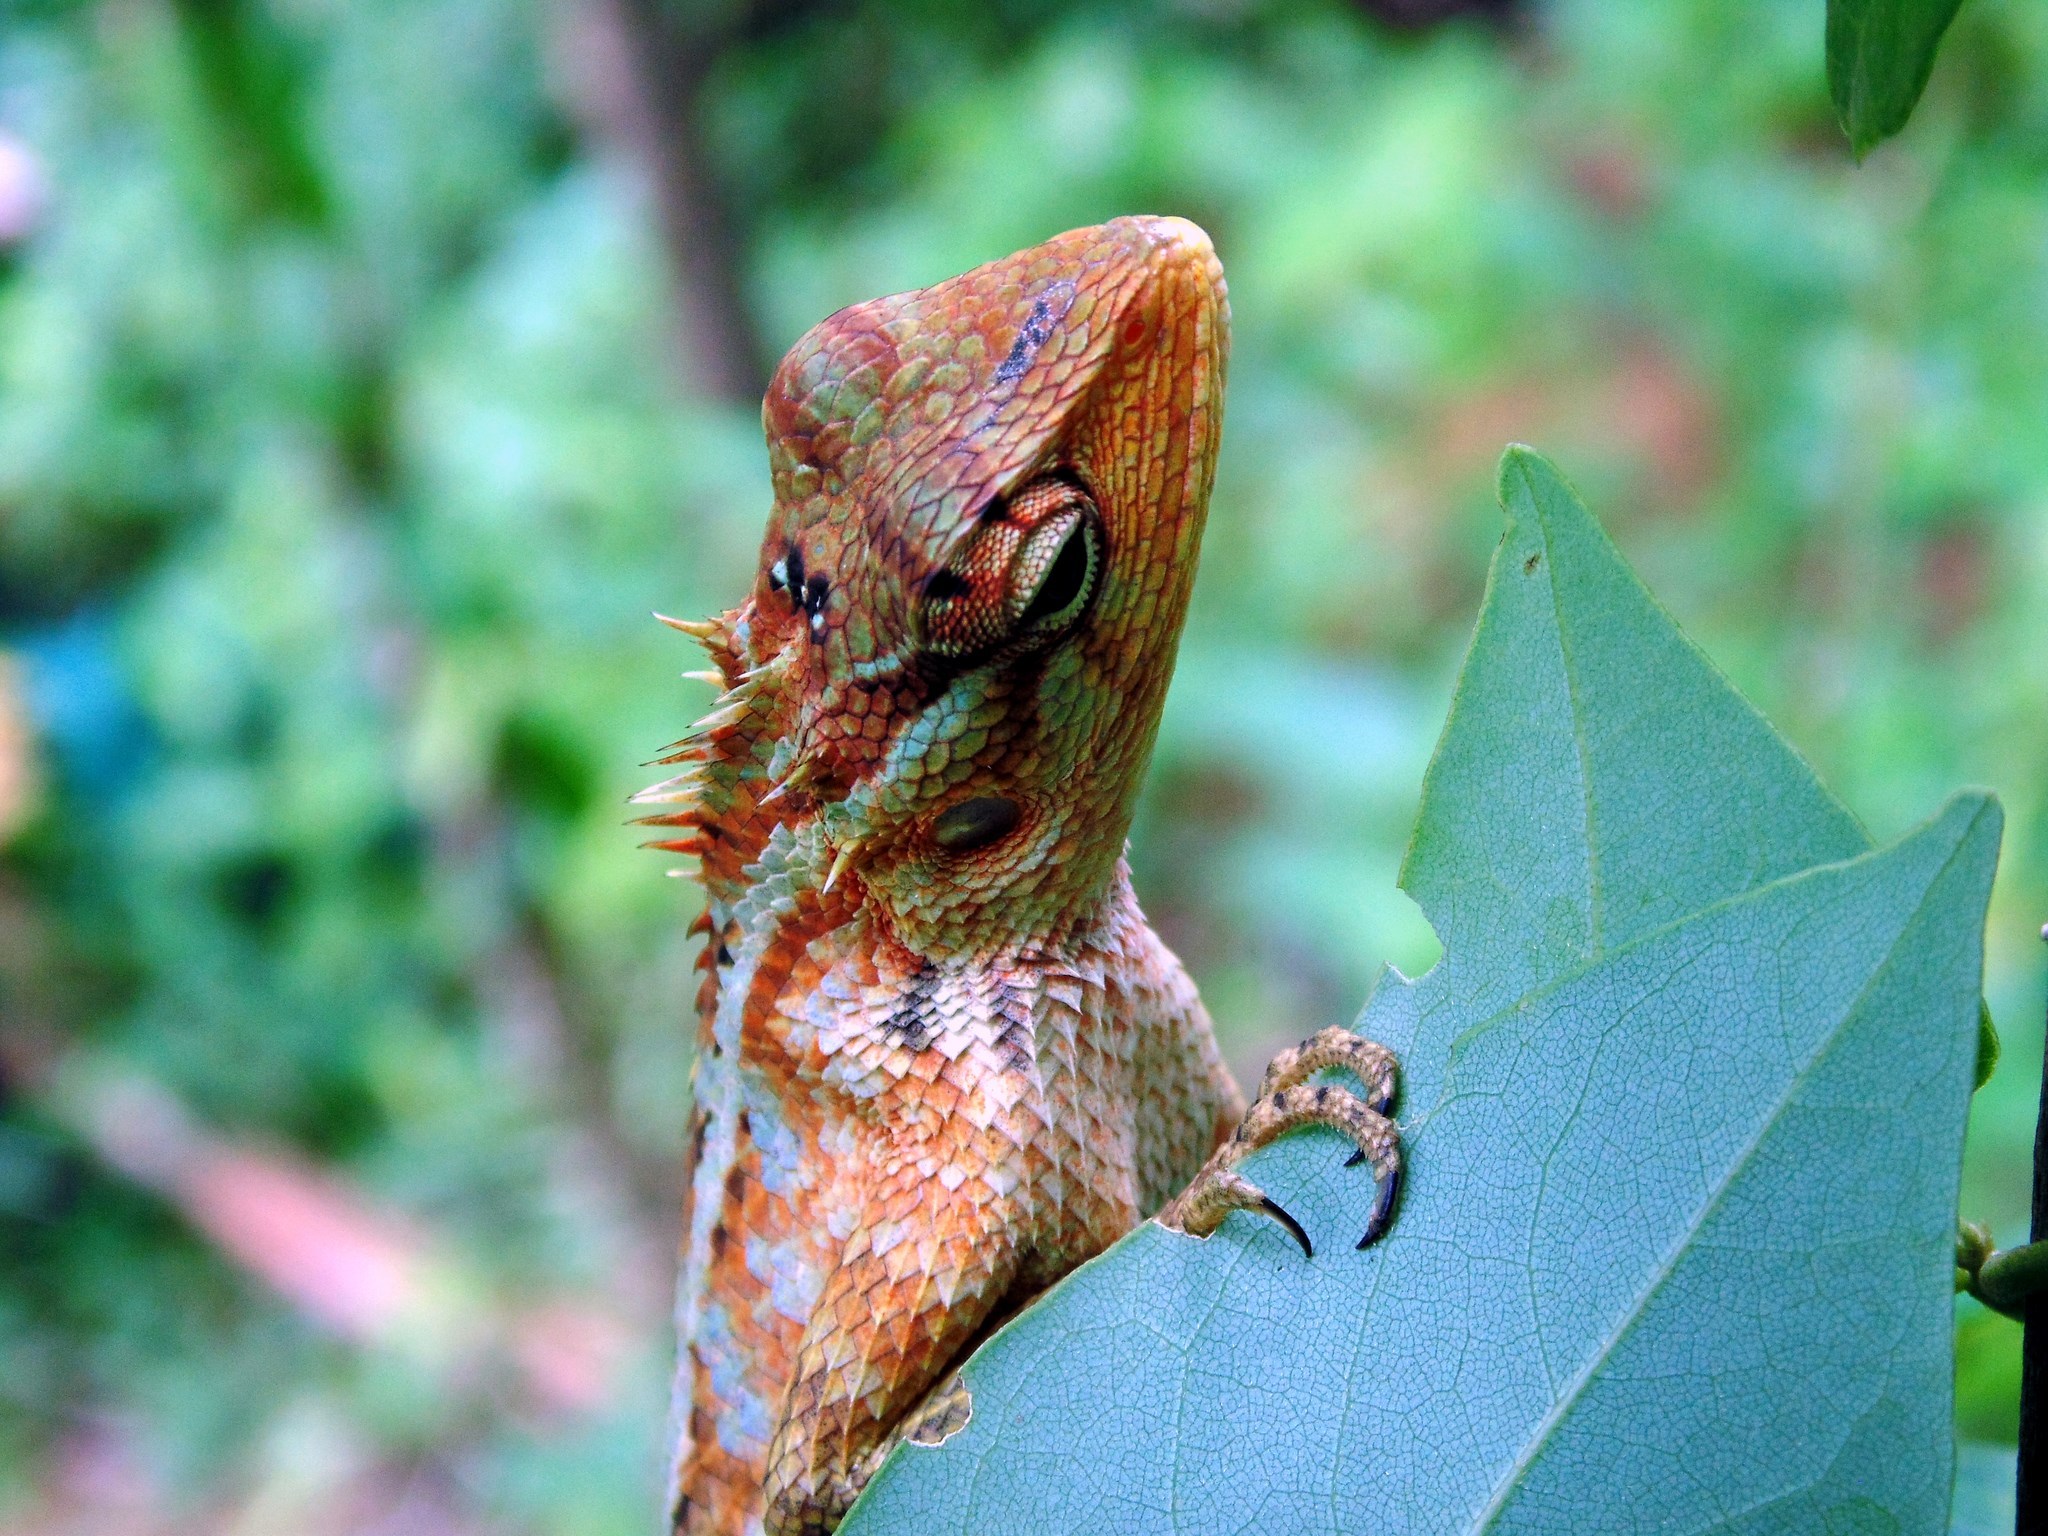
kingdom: Animalia
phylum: Chordata
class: Squamata
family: Agamidae
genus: Calotes
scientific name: Calotes versicolor
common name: Oriental garden lizard
